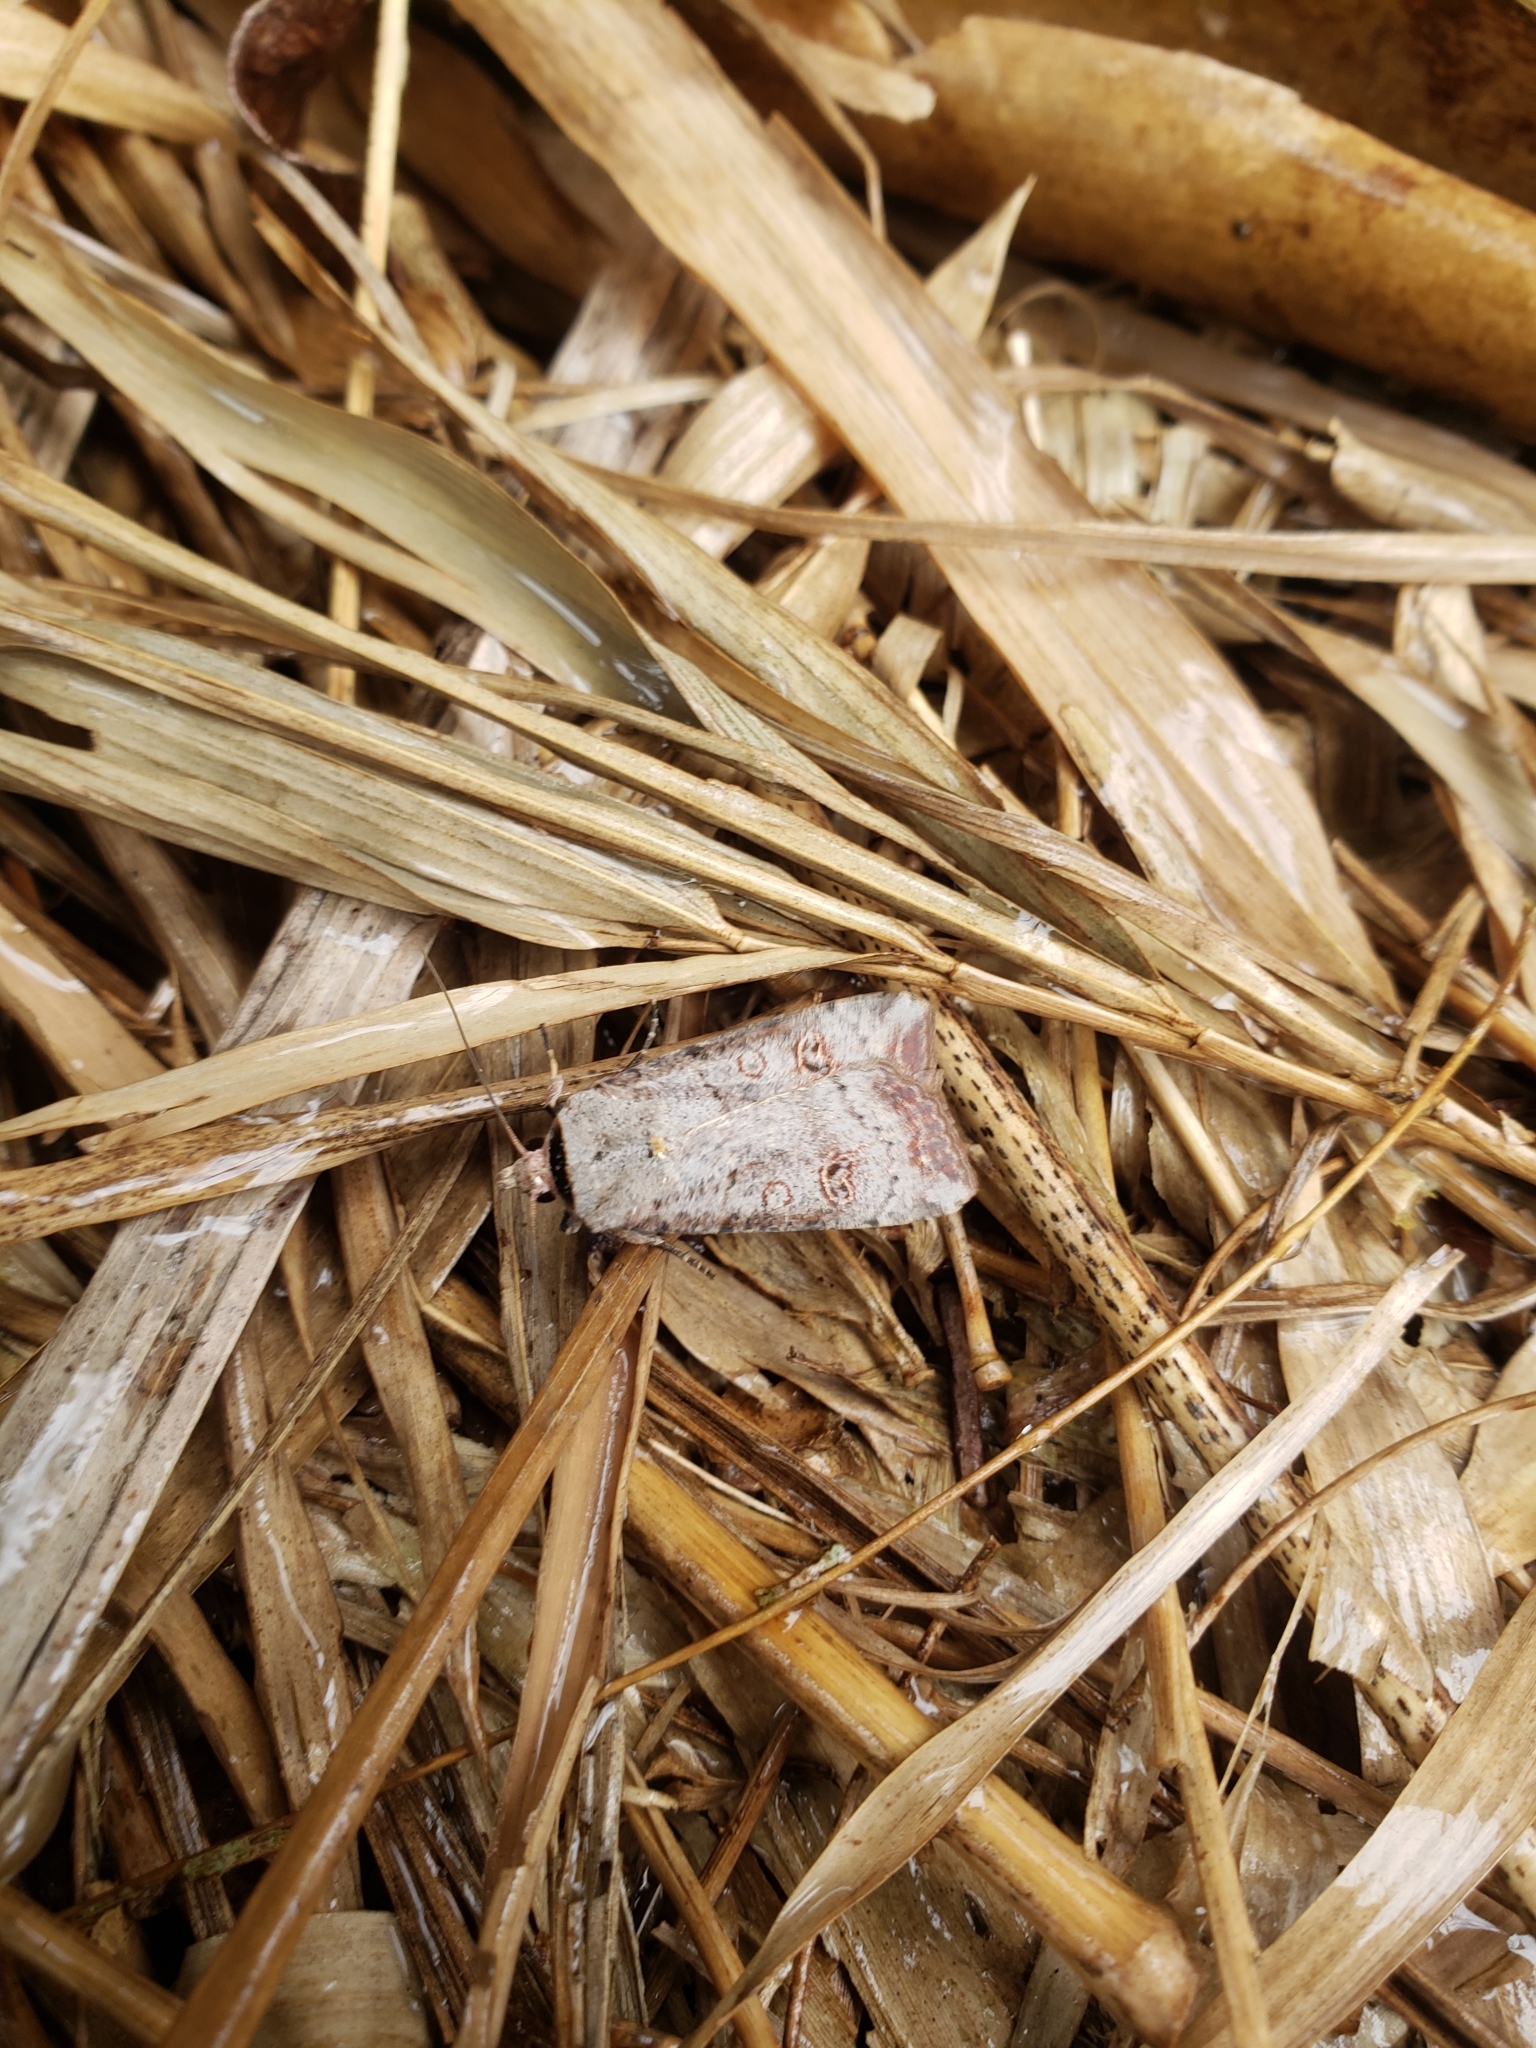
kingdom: Animalia
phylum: Arthropoda
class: Insecta
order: Lepidoptera
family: Noctuidae
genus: Anicla
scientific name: Anicla infecta
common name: Green cutworm
